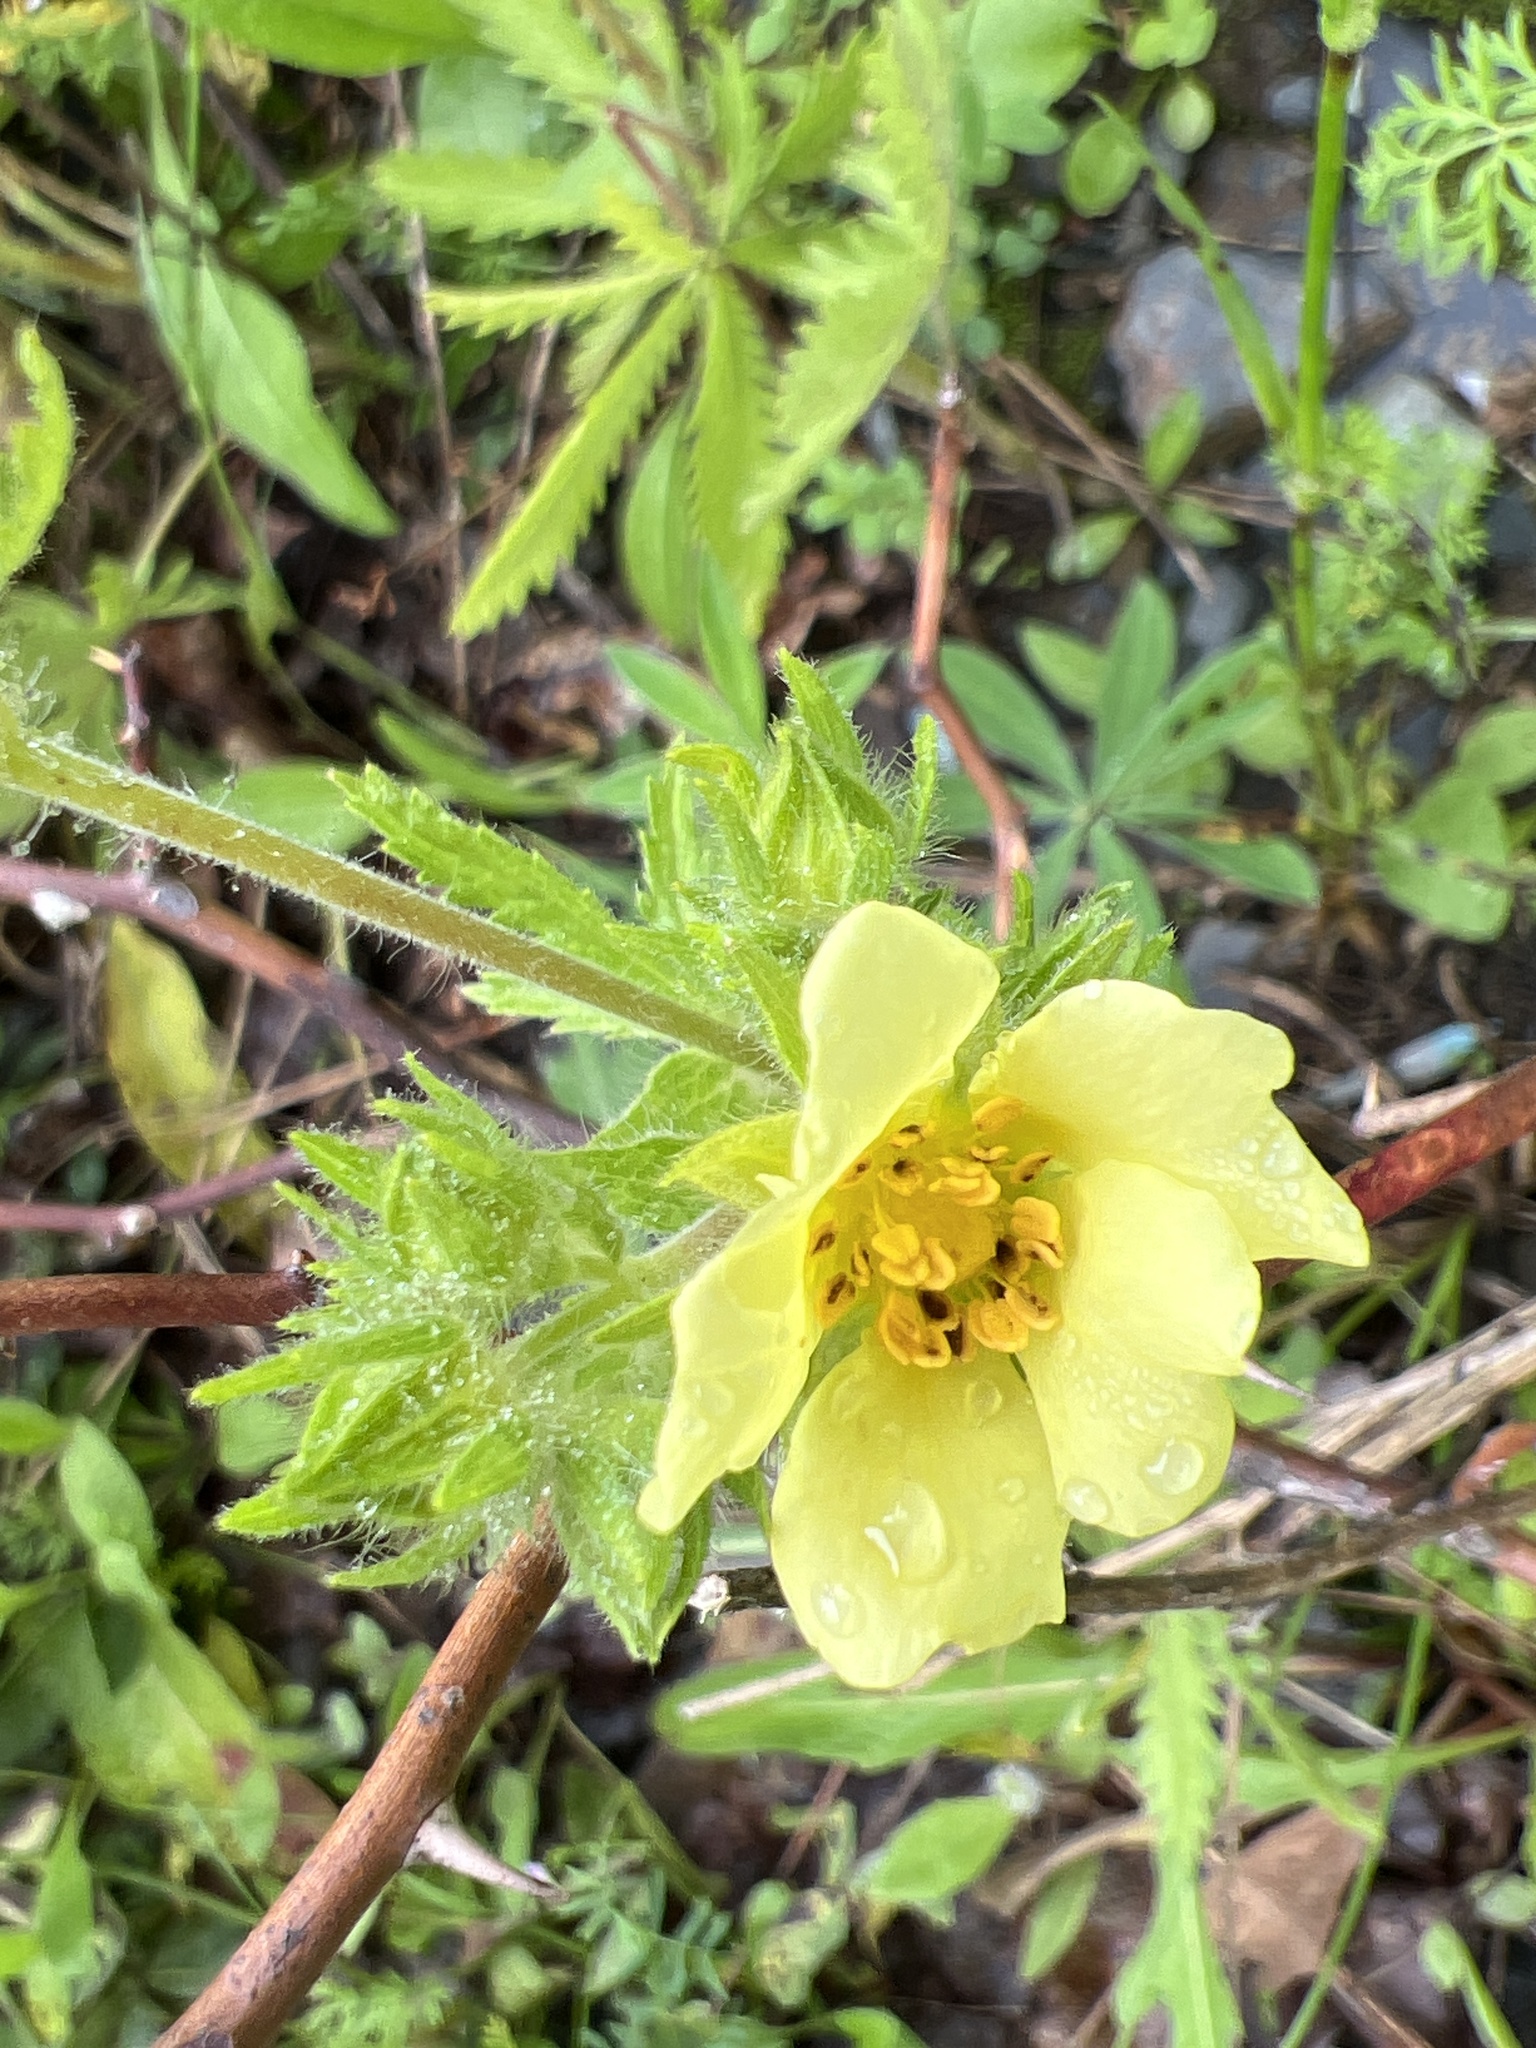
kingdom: Plantae
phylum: Tracheophyta
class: Magnoliopsida
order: Rosales
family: Rosaceae
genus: Potentilla
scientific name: Potentilla recta
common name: Sulphur cinquefoil
